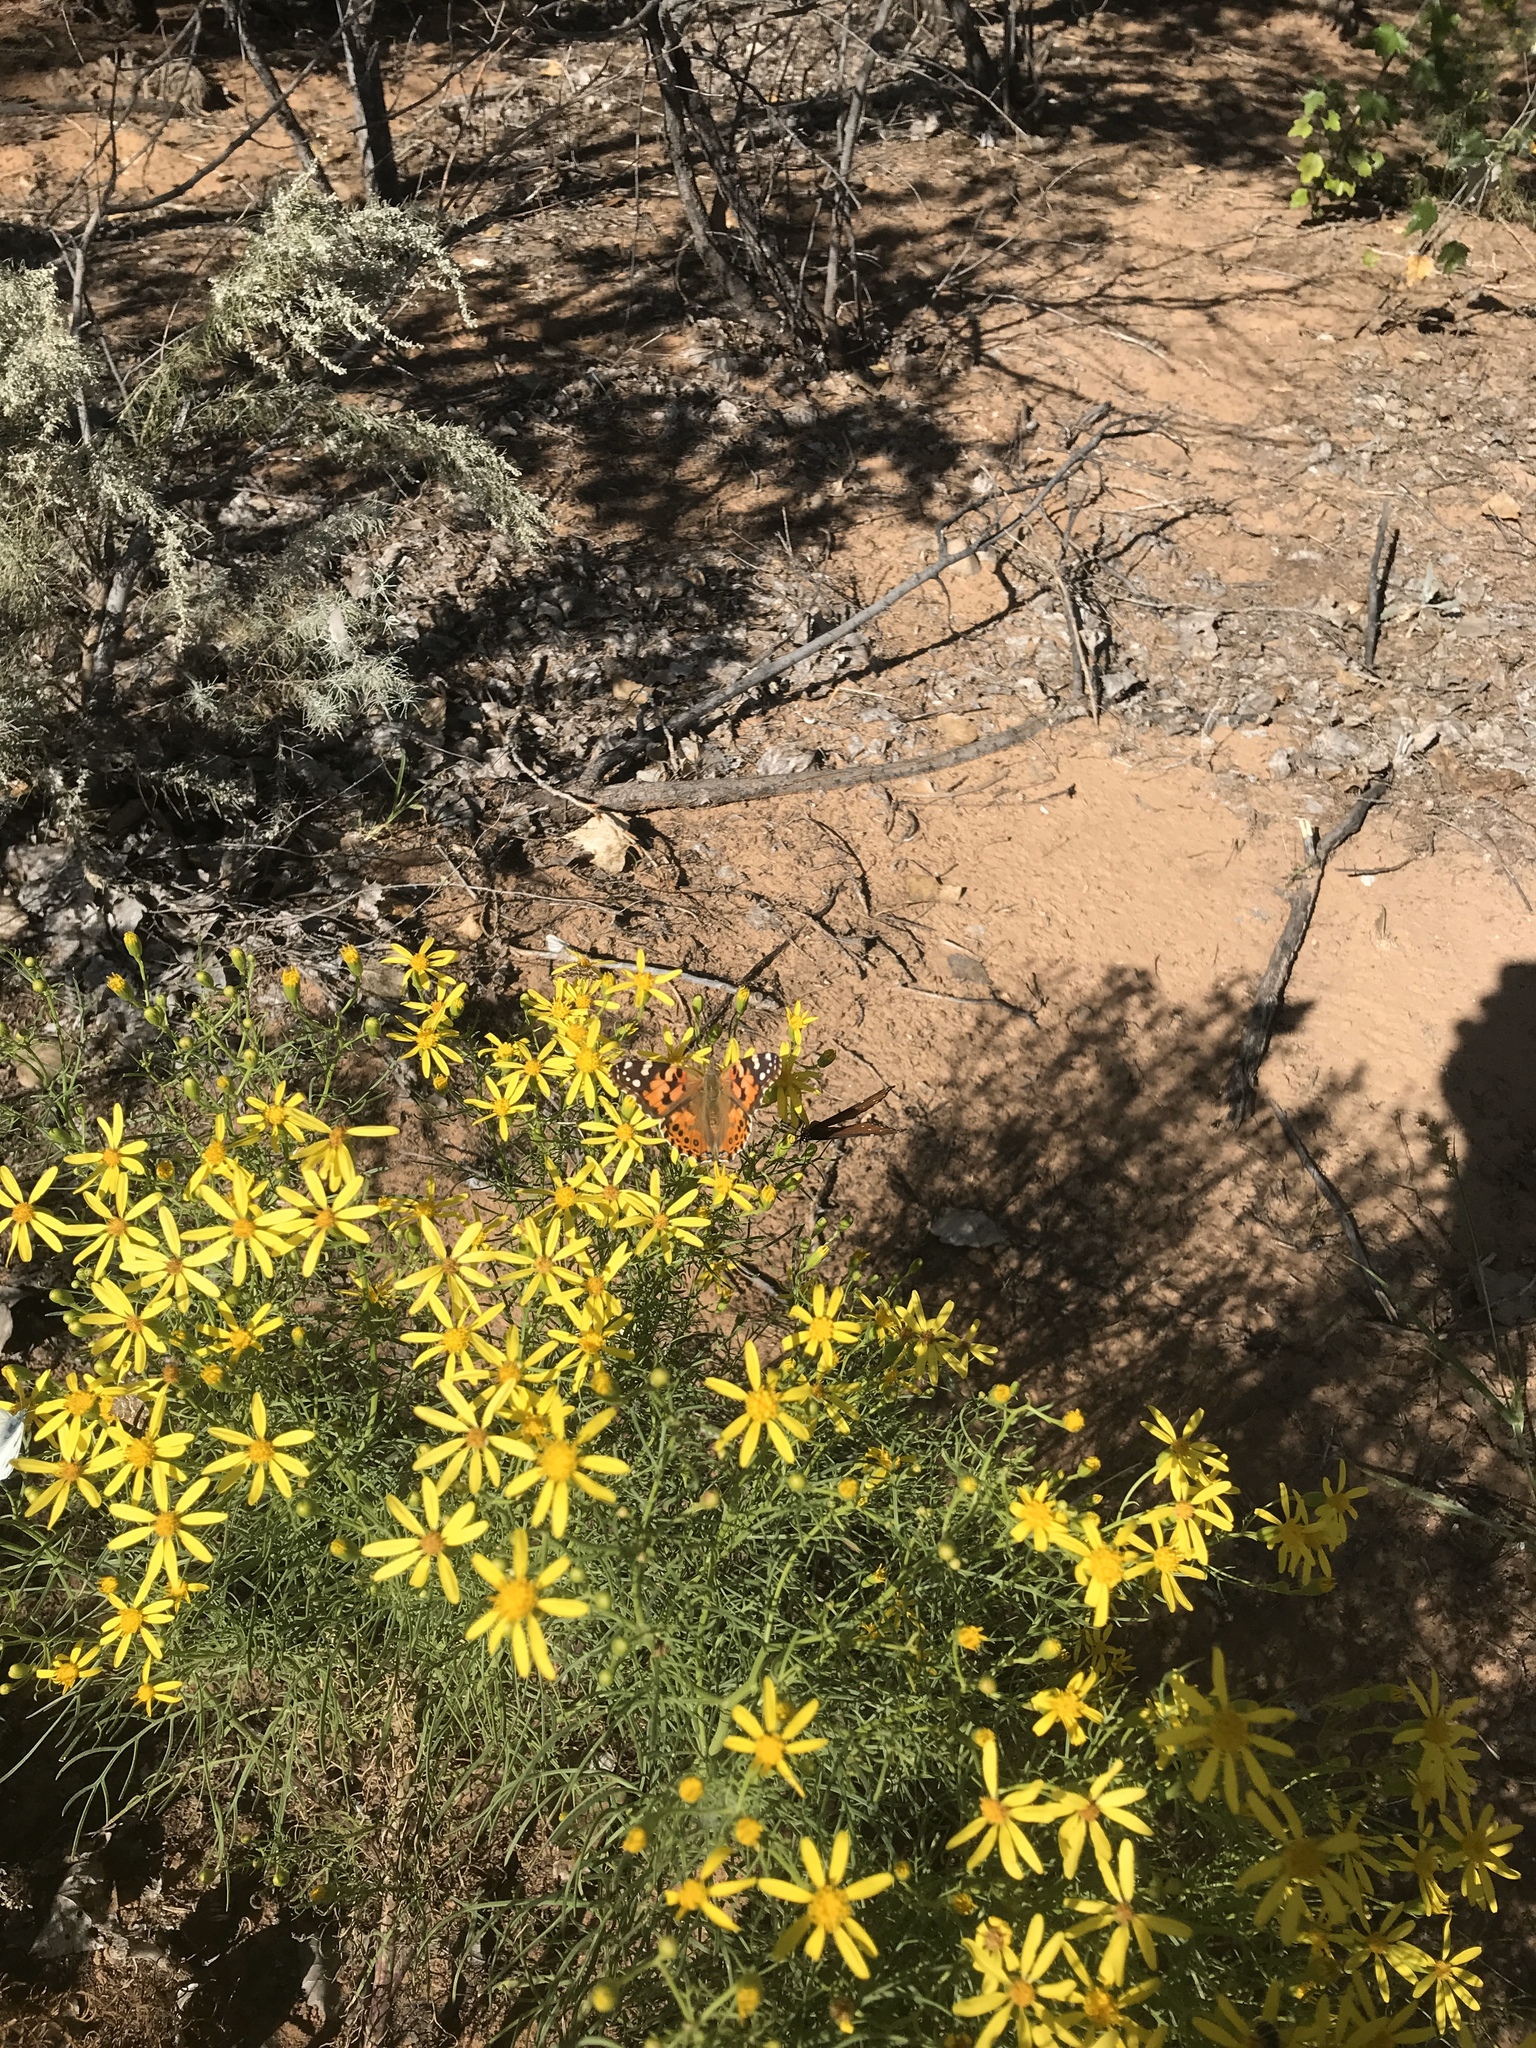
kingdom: Animalia
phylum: Arthropoda
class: Insecta
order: Lepidoptera
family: Nymphalidae
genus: Vanessa
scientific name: Vanessa cardui
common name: Painted lady
